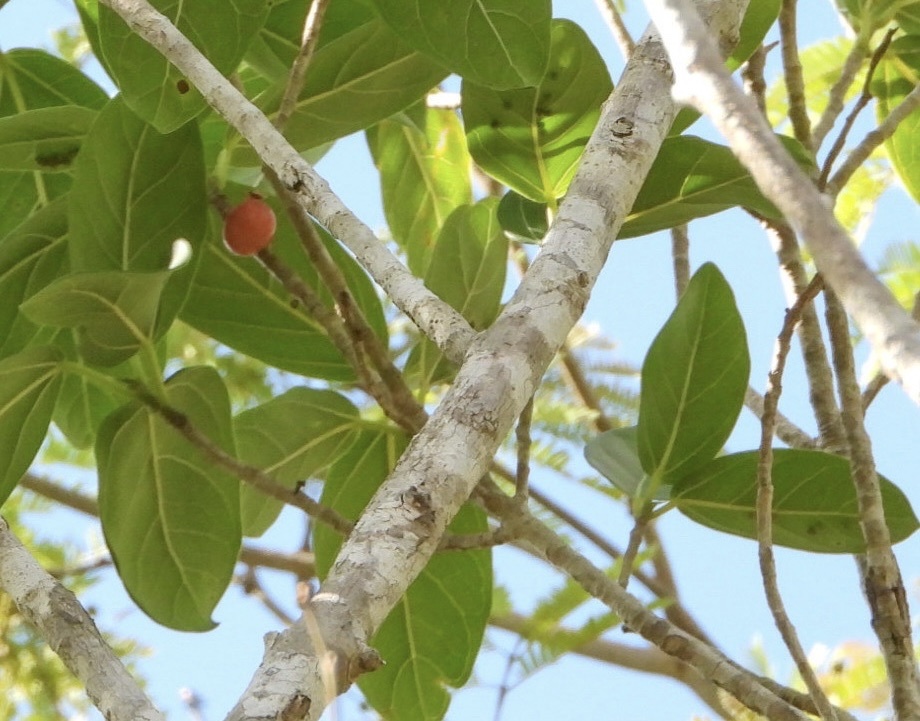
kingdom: Plantae
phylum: Tracheophyta
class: Magnoliopsida
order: Rosales
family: Moraceae
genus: Ficus
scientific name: Ficus cotinifolia
